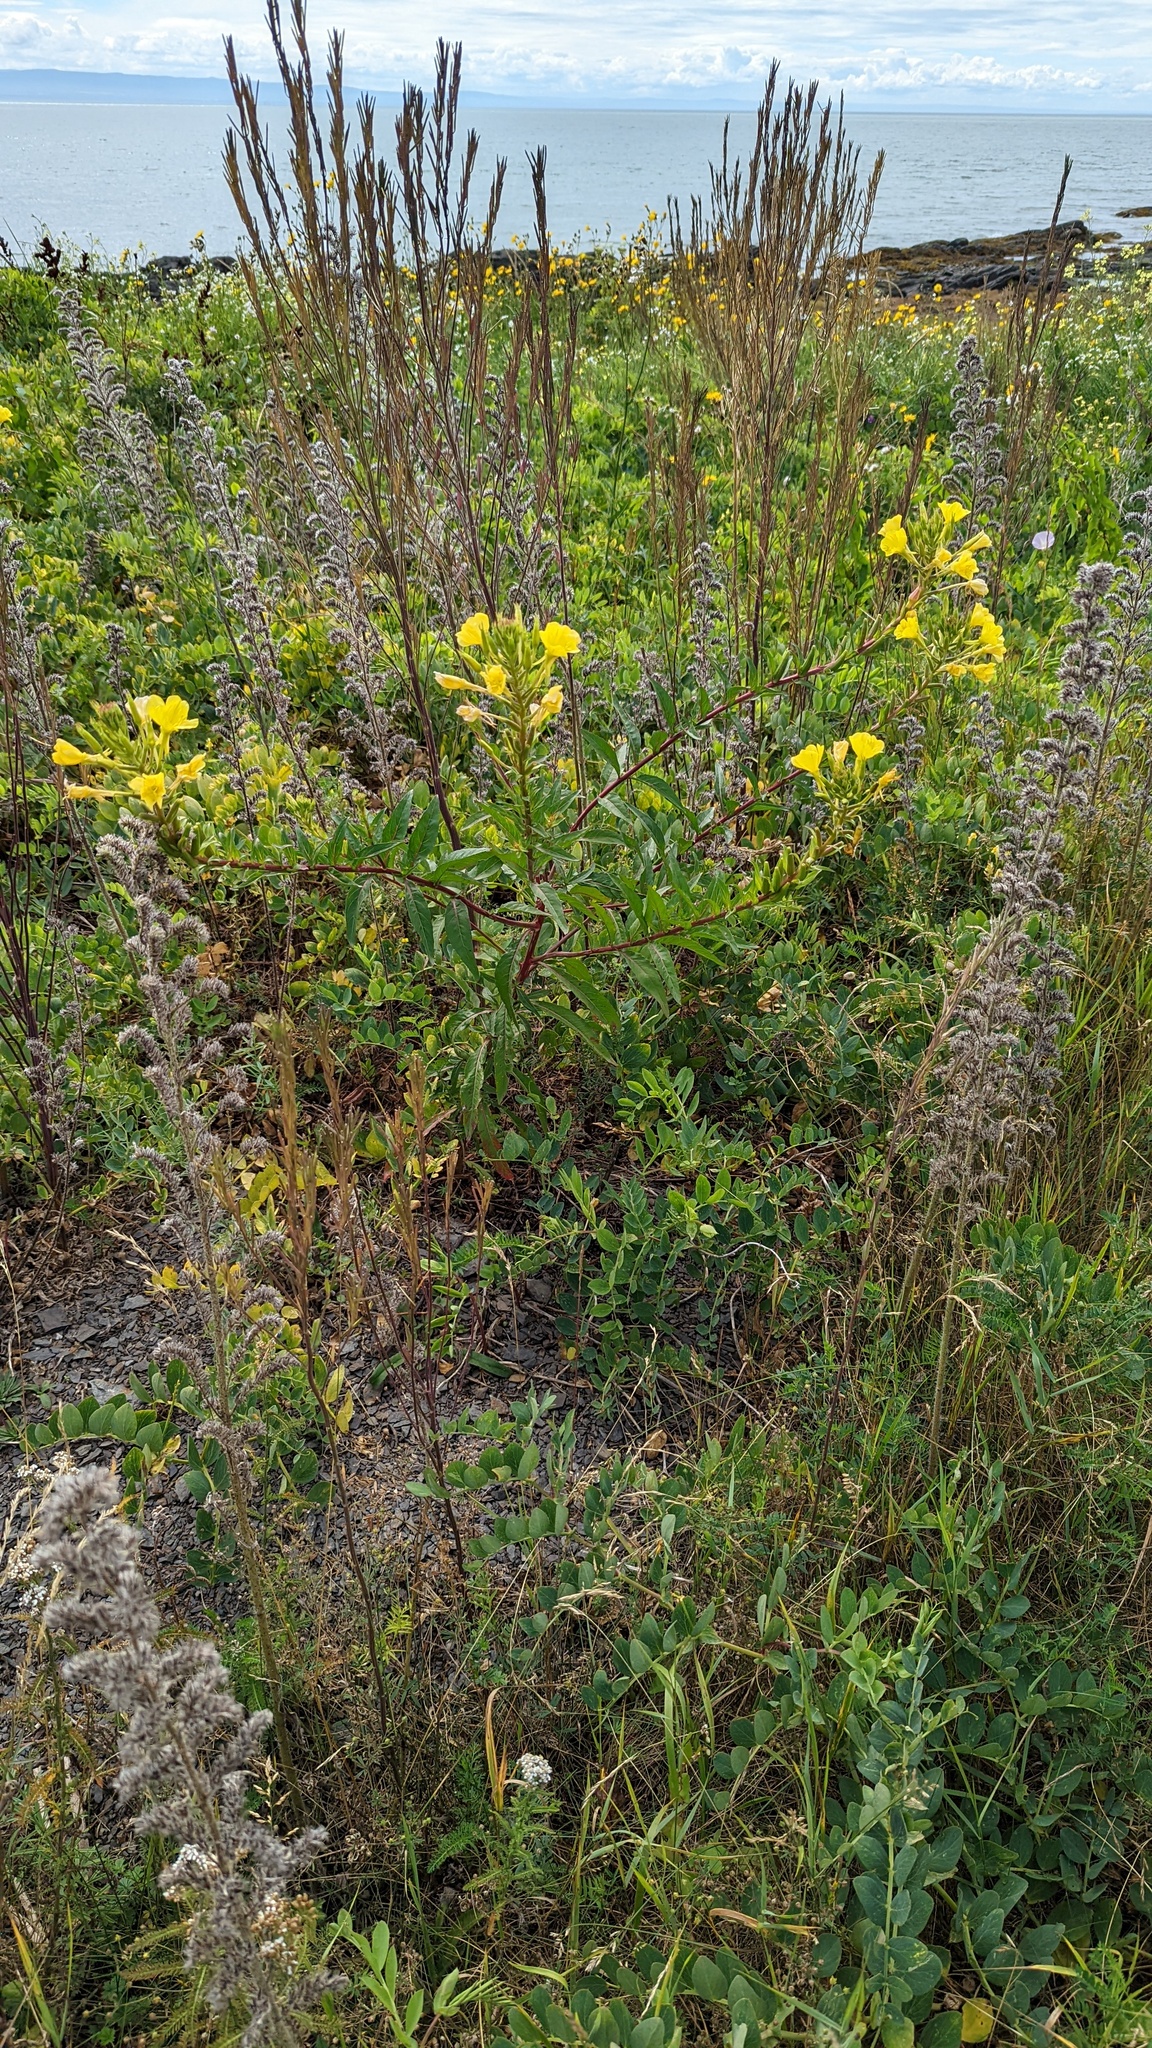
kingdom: Plantae
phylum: Tracheophyta
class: Magnoliopsida
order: Myrtales
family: Onagraceae
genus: Oenothera
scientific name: Oenothera parviflora
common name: Least evening-primrose
